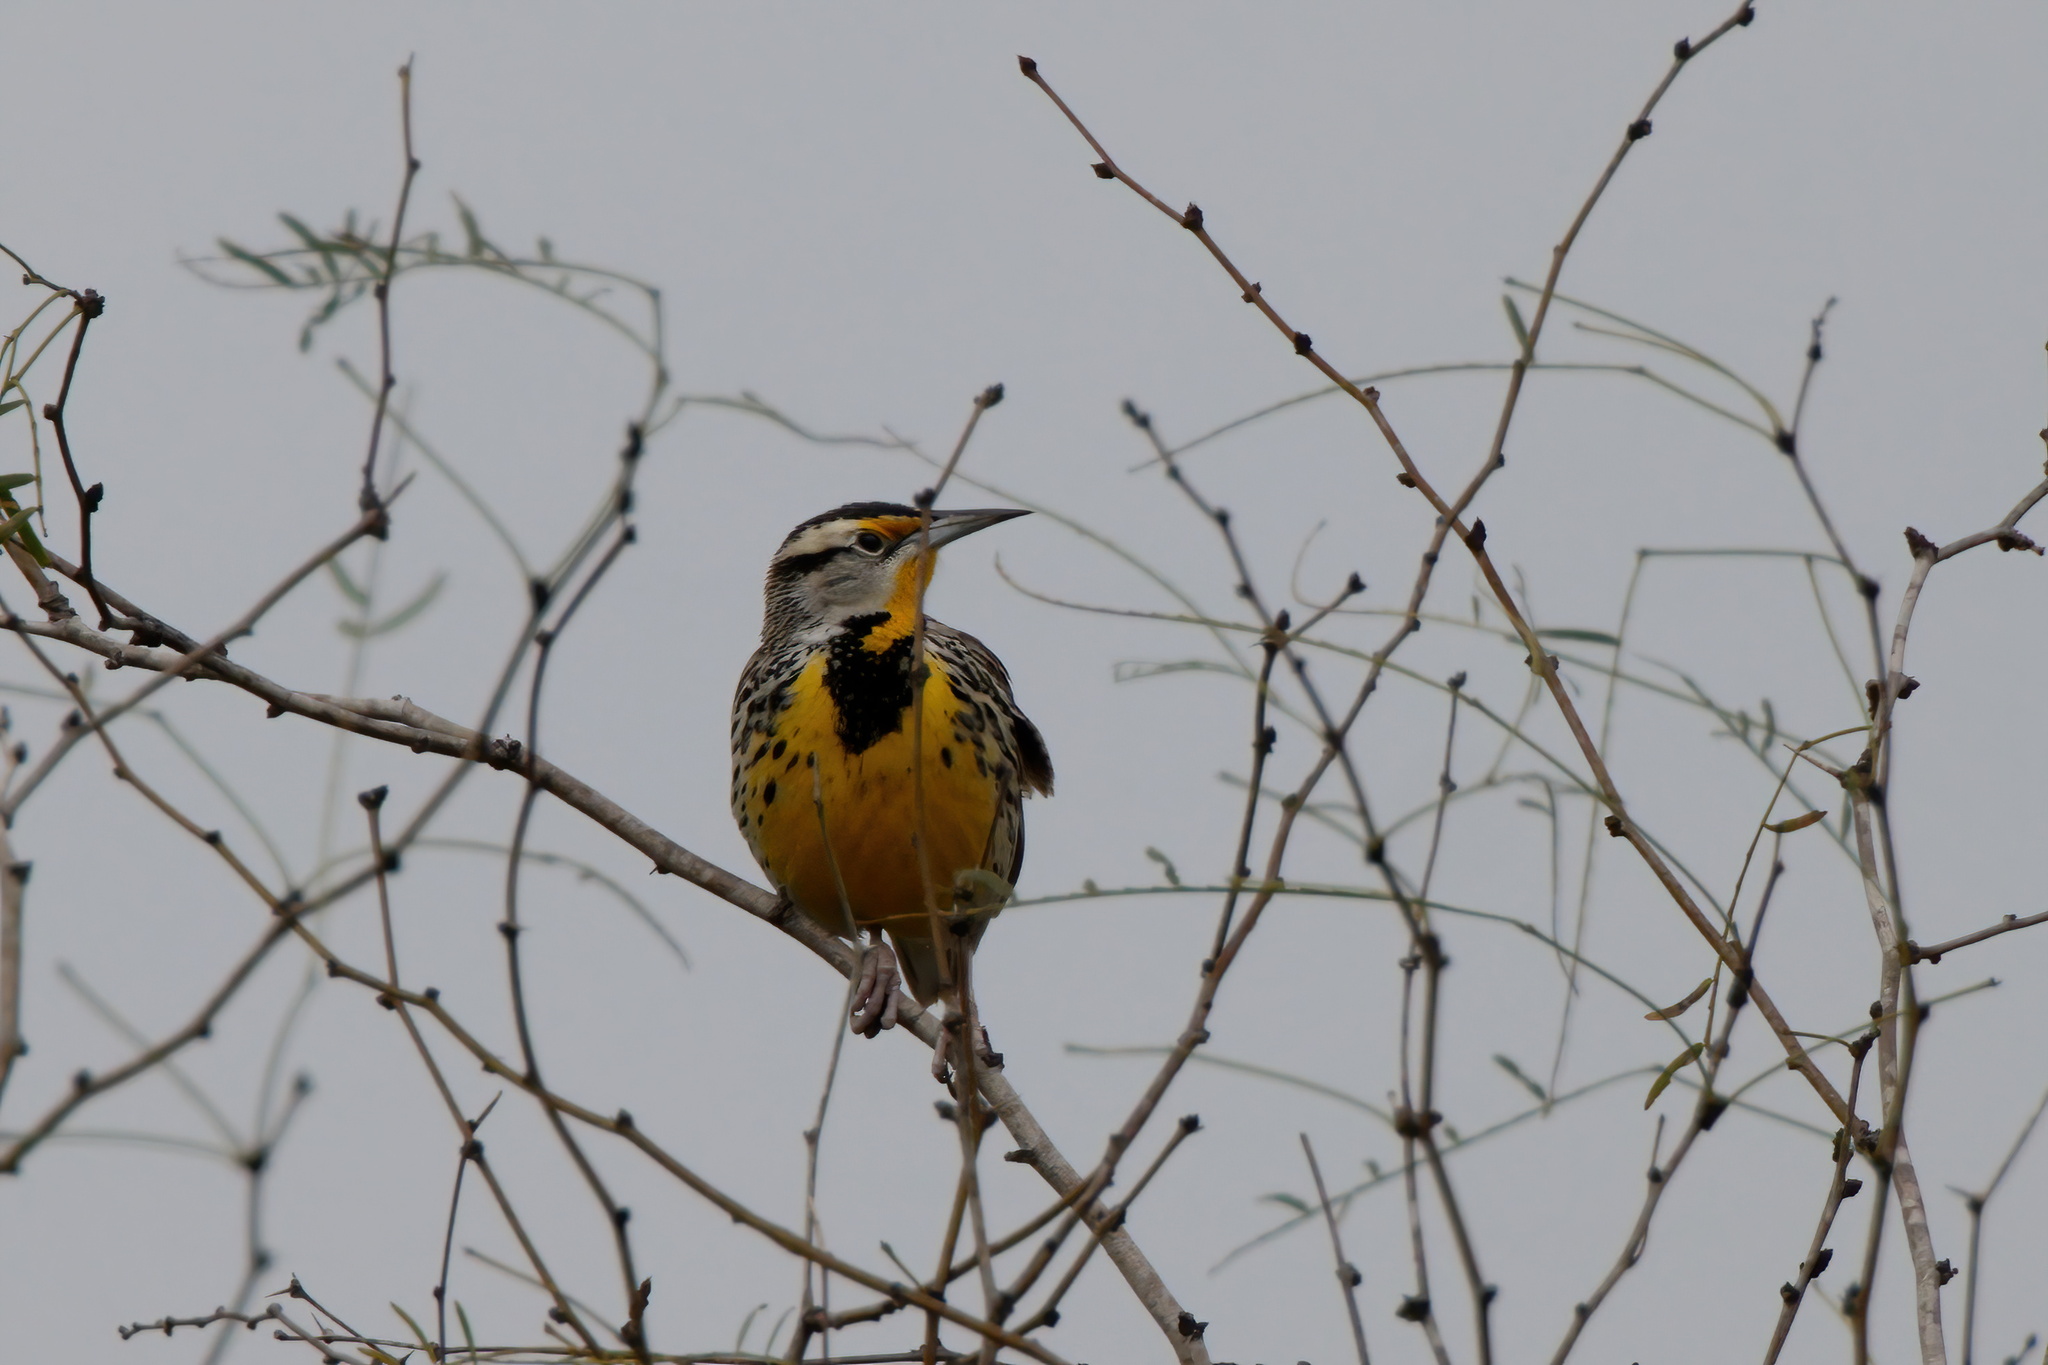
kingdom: Animalia
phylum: Chordata
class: Aves
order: Passeriformes
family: Icteridae
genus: Sturnella
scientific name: Sturnella magna
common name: Eastern meadowlark
